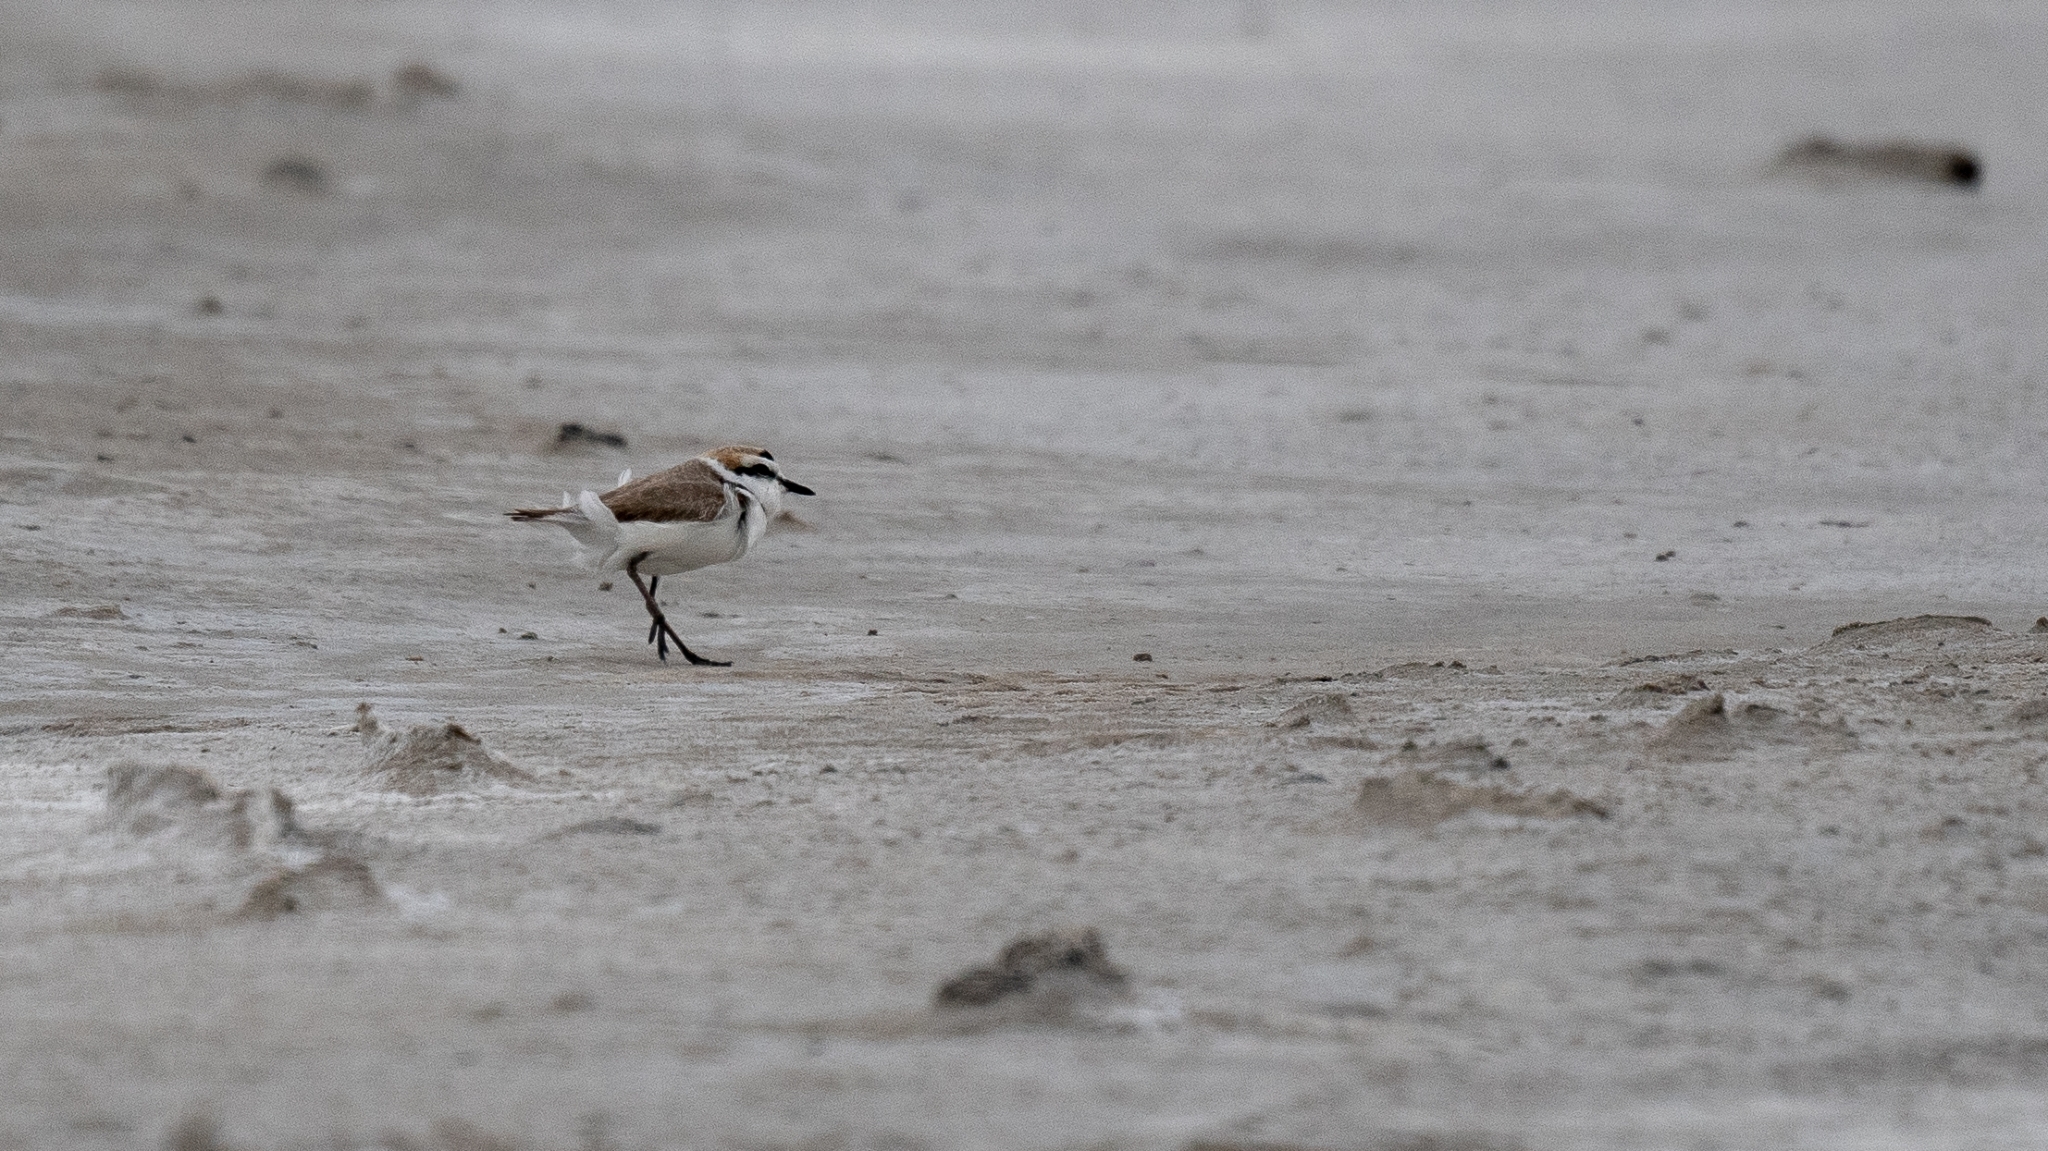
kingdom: Animalia
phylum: Chordata
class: Aves
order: Charadriiformes
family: Charadriidae
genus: Anarhynchus
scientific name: Anarhynchus
